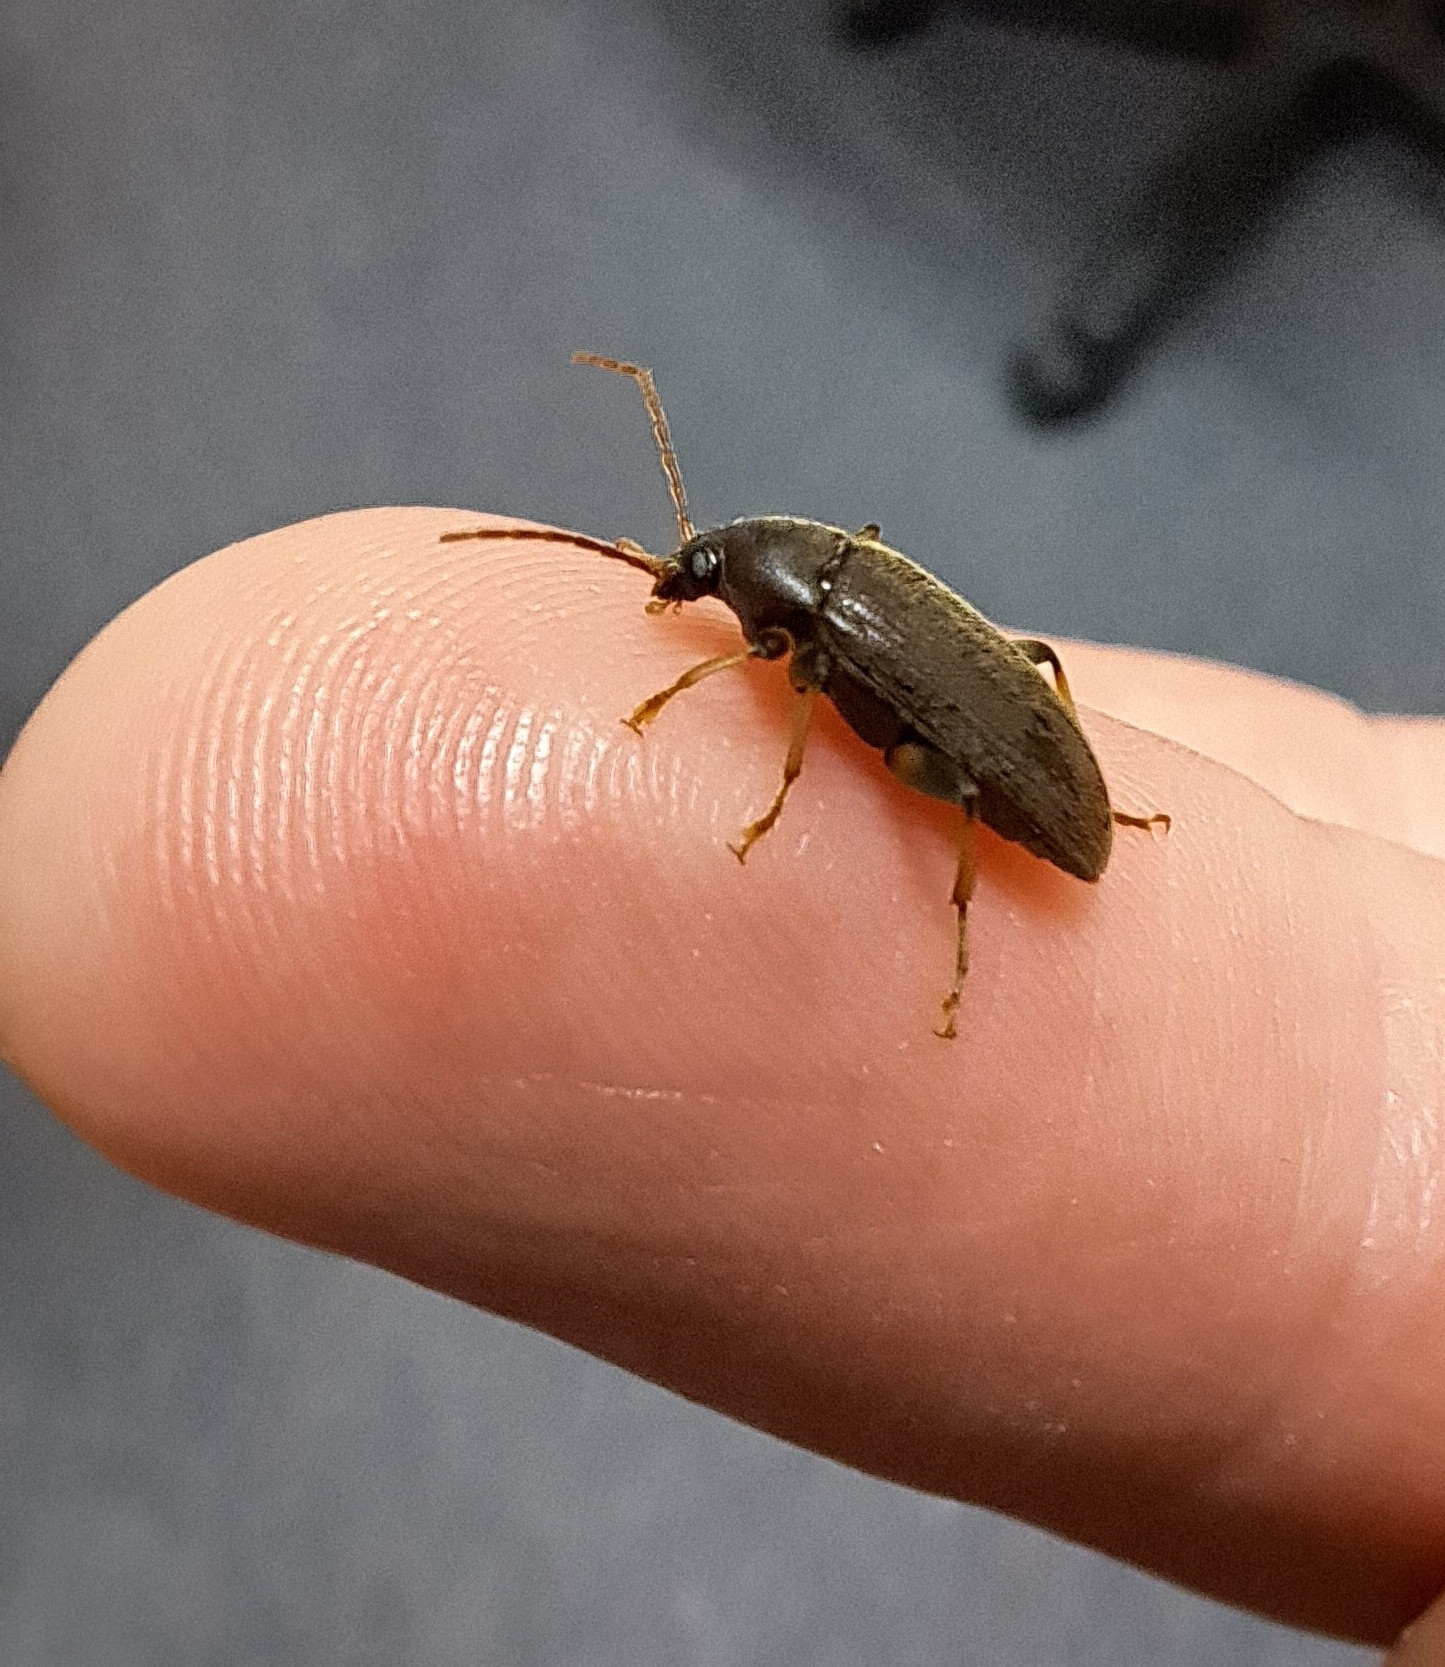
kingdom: Animalia
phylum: Arthropoda
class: Insecta
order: Coleoptera
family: Tenebrionidae
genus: Homotrysis
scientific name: Homotrysis
